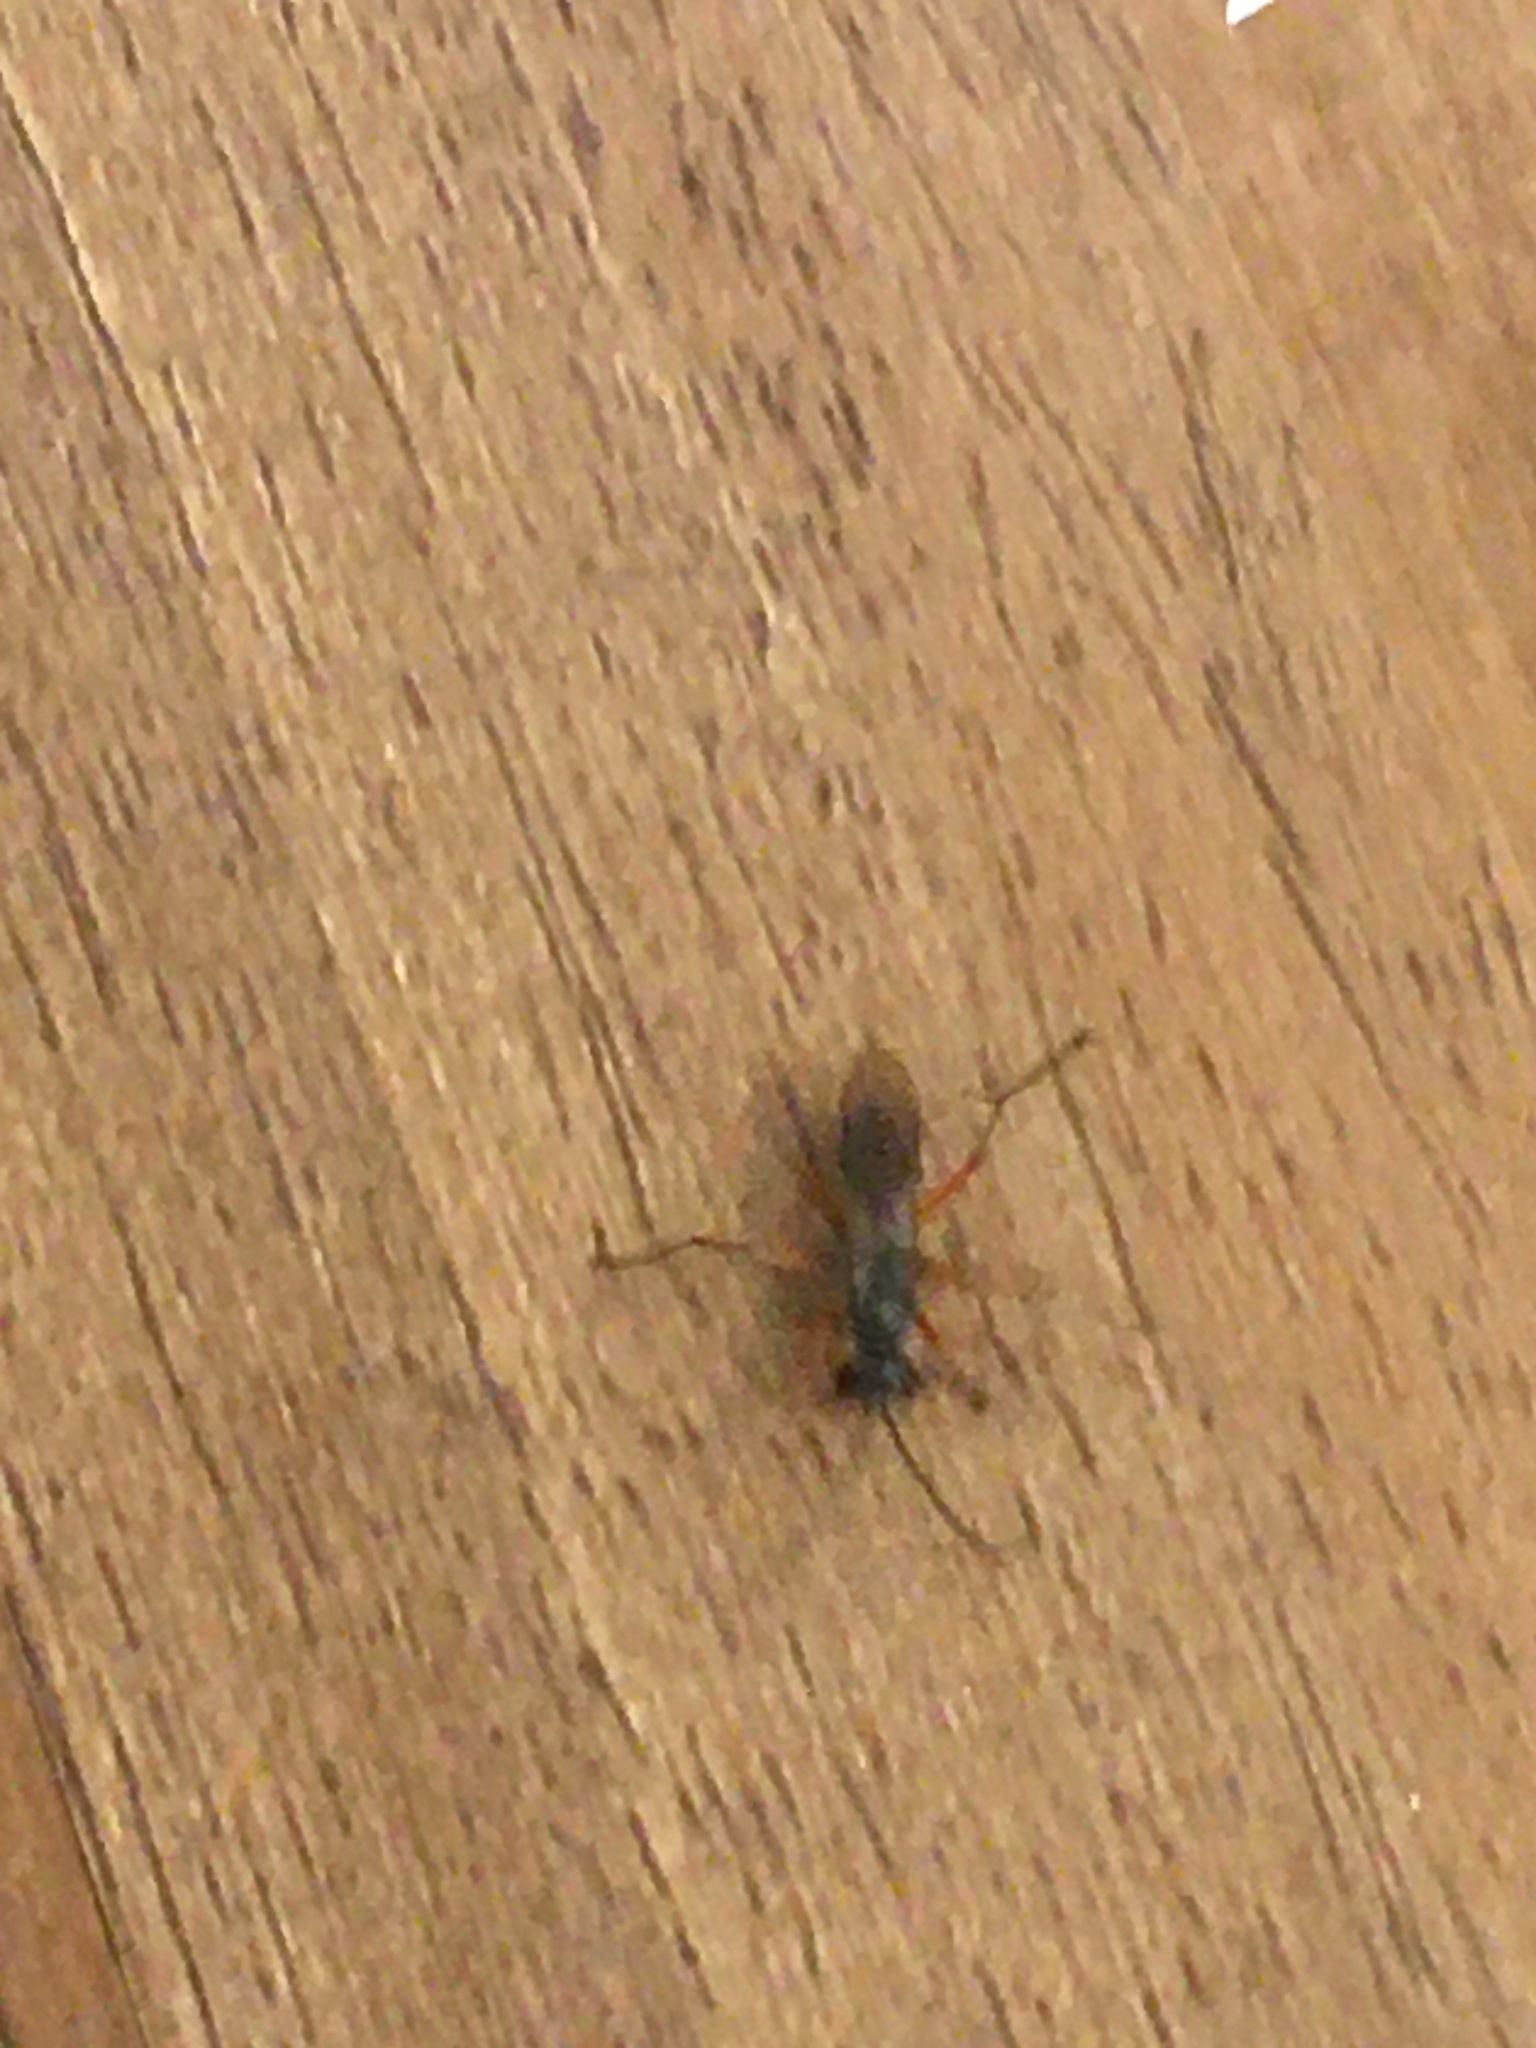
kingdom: Animalia
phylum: Arthropoda
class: Insecta
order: Hymenoptera
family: Pompilidae
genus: Auplopus
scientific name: Auplopus
